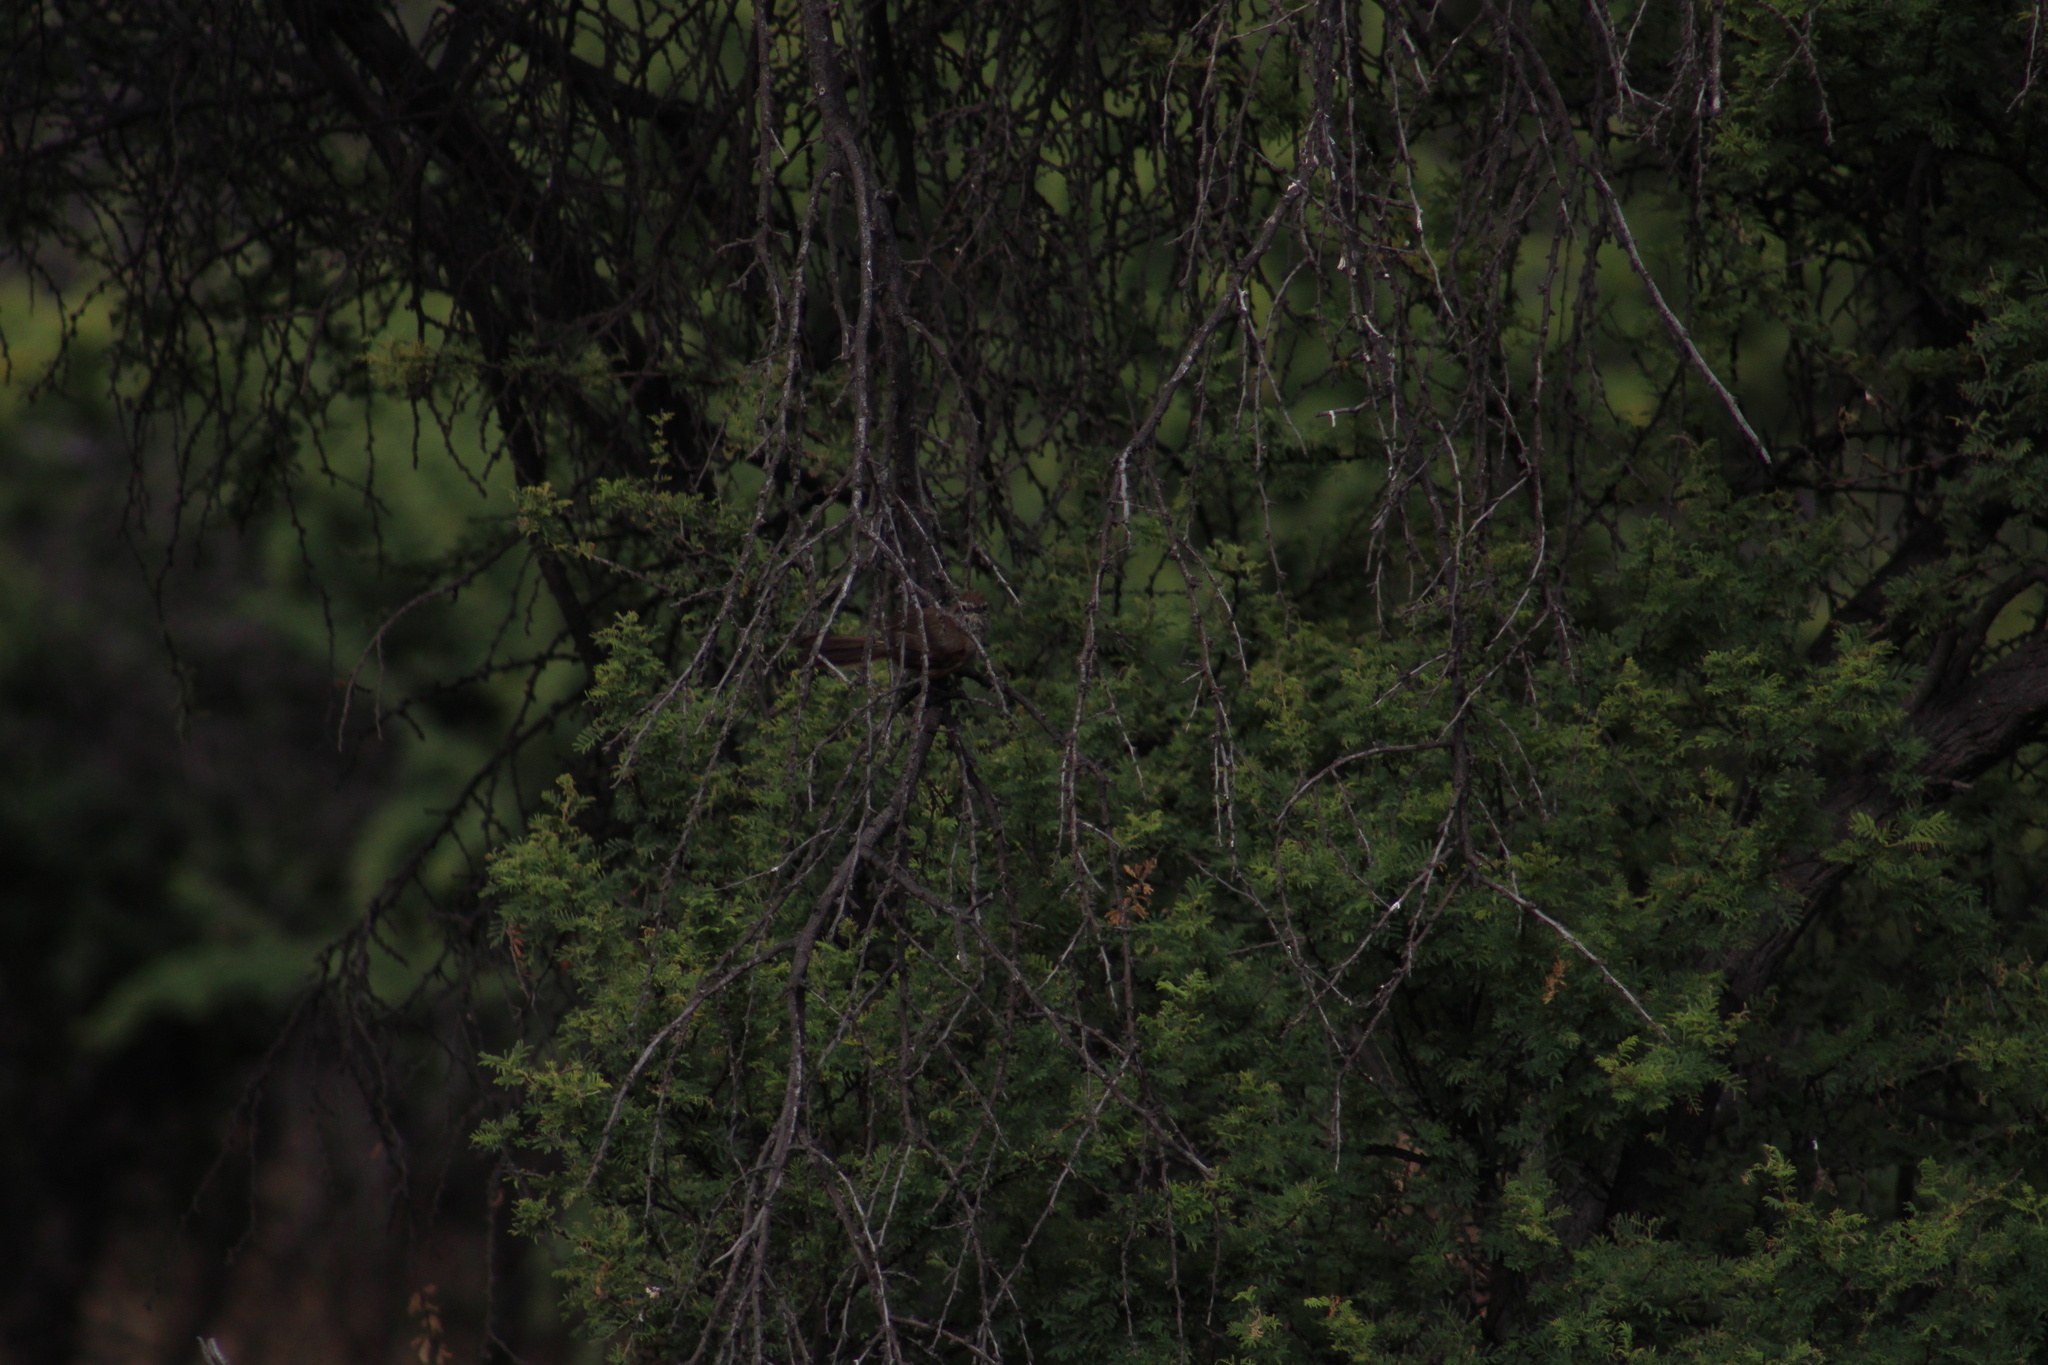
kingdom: Animalia
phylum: Chordata
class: Aves
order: Passeriformes
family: Furnariidae
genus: Asthenes
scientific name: Asthenes humicola
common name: Dusky-tailed canastero
